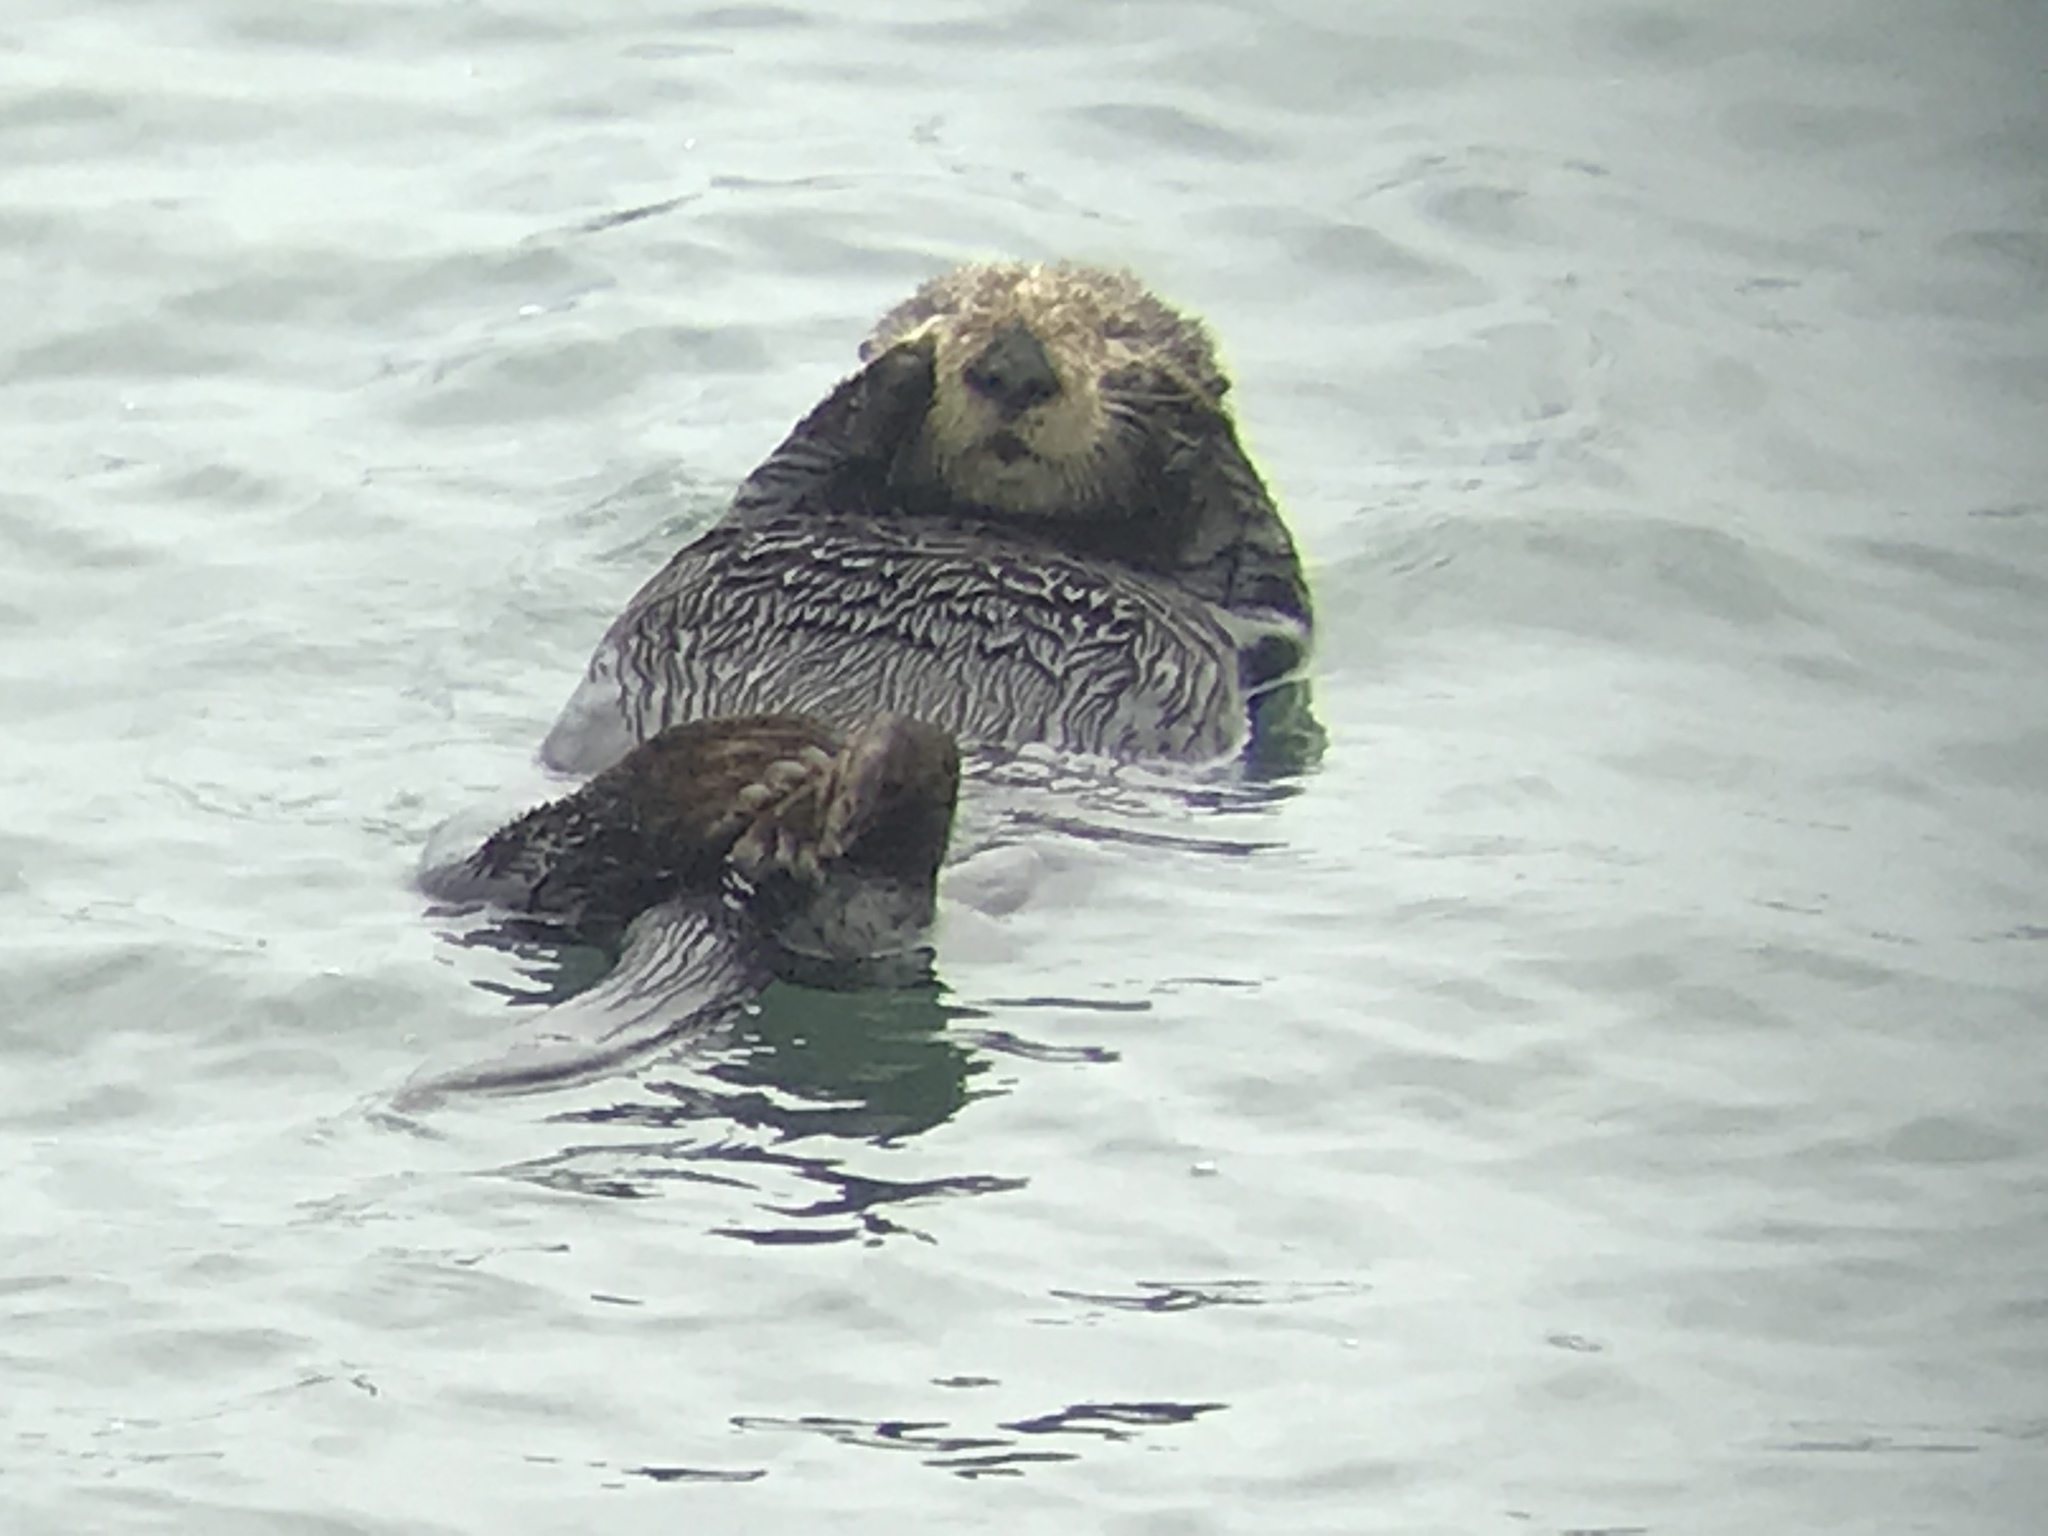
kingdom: Animalia
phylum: Chordata
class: Mammalia
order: Carnivora
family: Mustelidae
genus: Enhydra
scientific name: Enhydra lutris
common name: Sea otter
